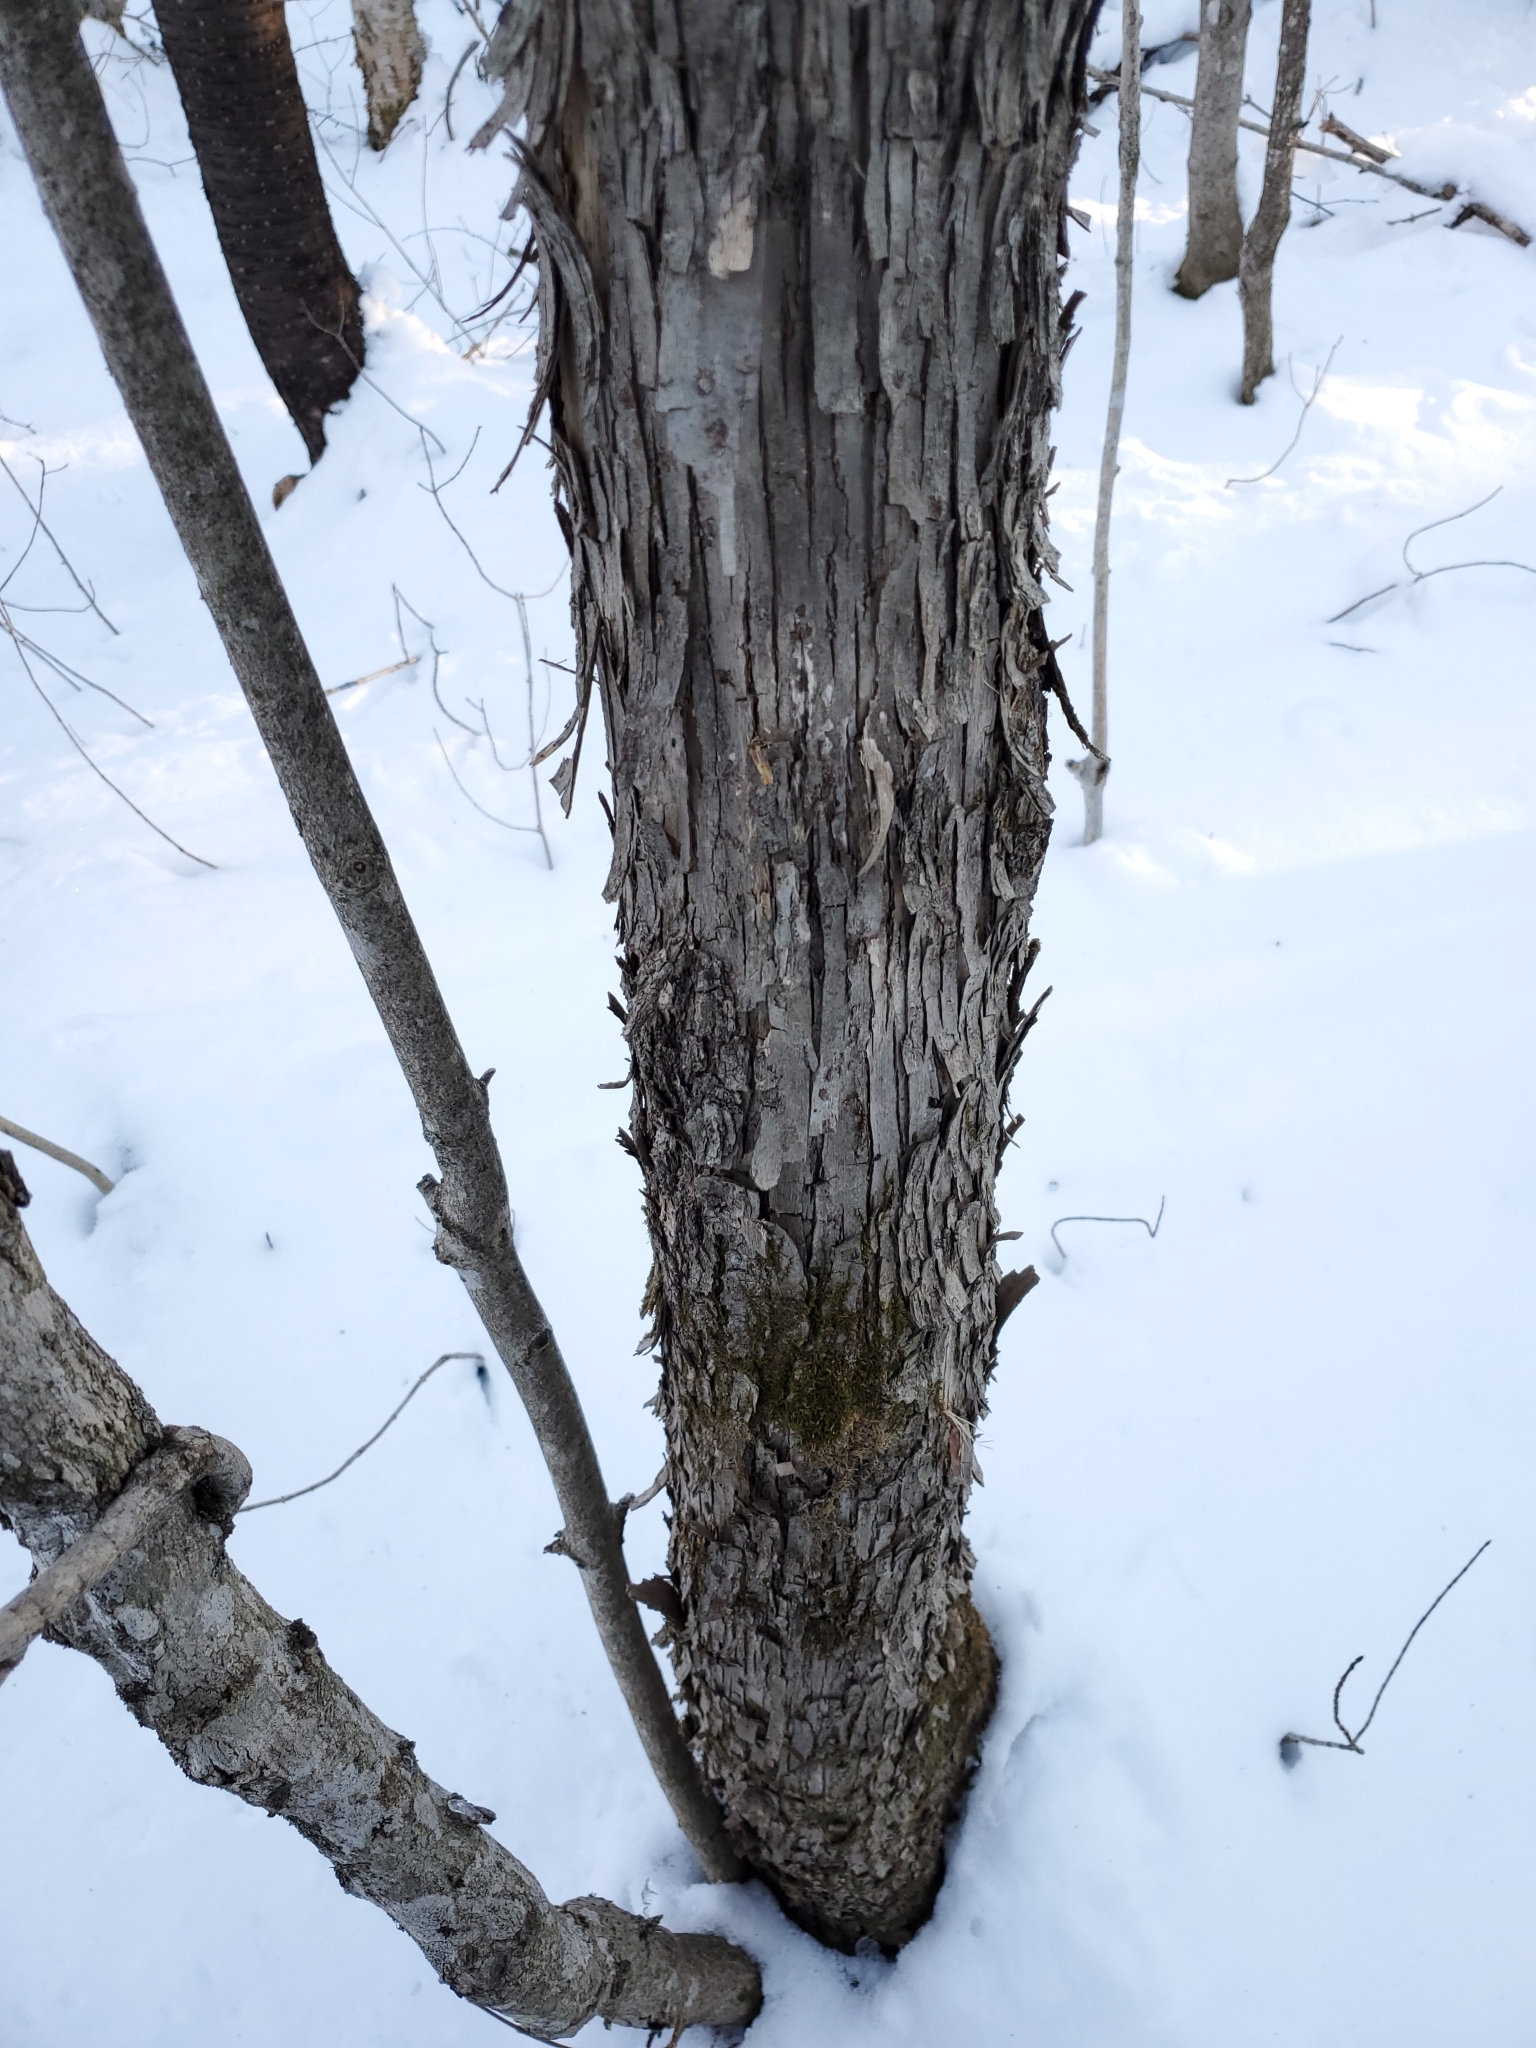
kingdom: Plantae
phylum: Tracheophyta
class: Magnoliopsida
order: Fagales
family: Betulaceae
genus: Ostrya
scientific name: Ostrya virginiana
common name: Ironwood
